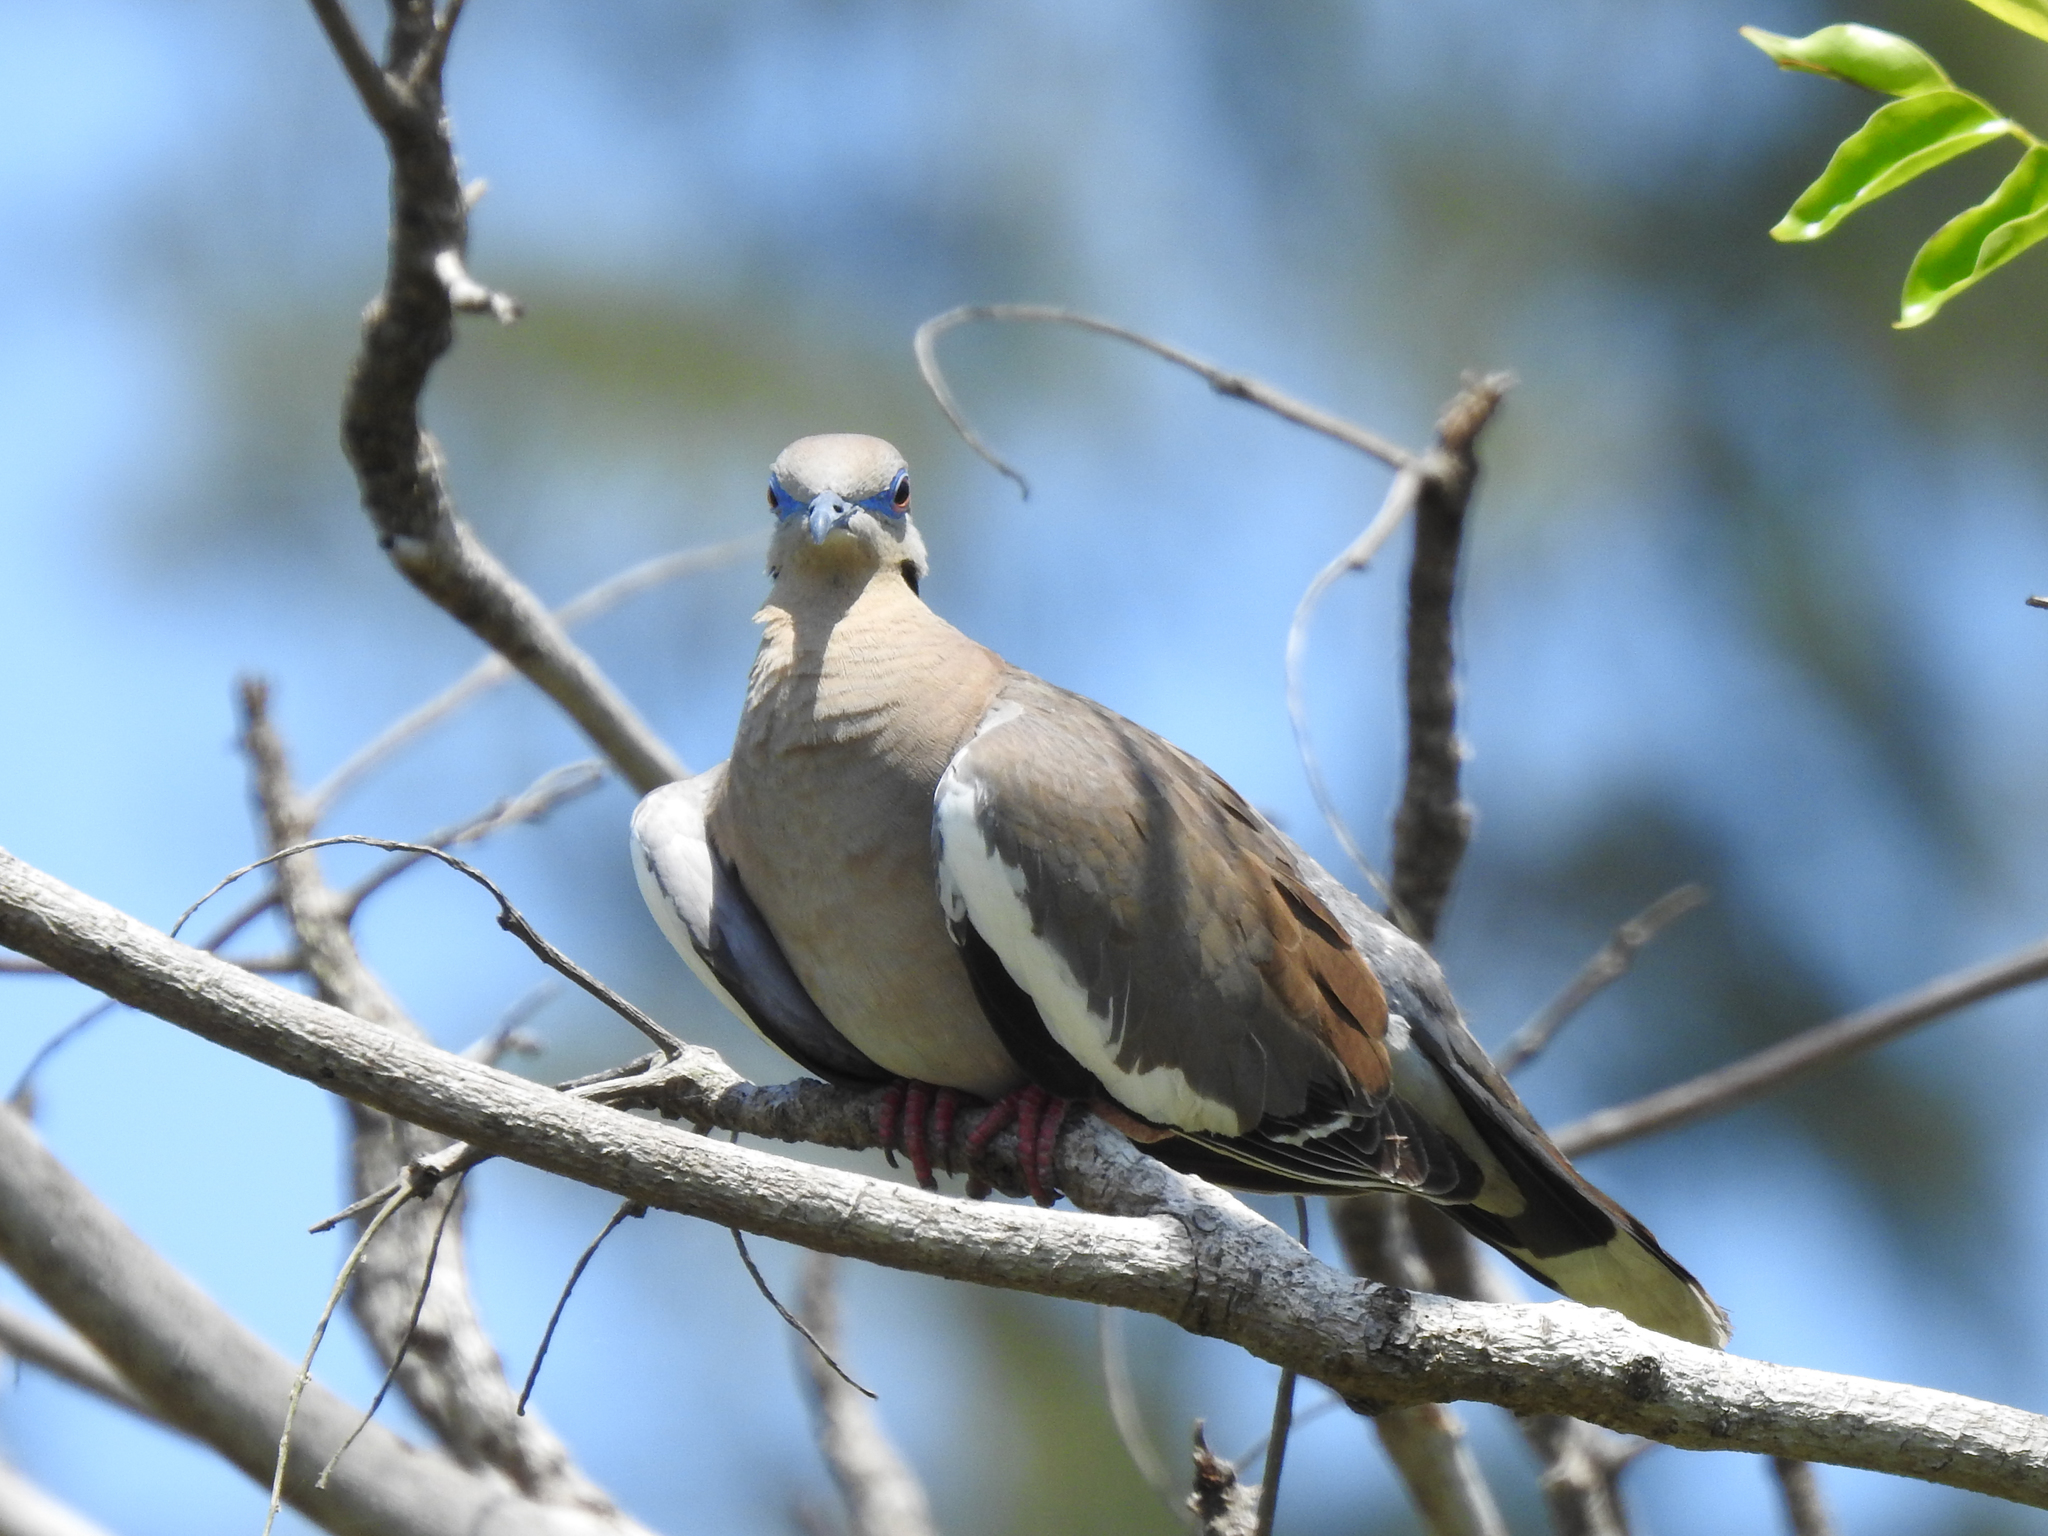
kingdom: Animalia
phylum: Chordata
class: Aves
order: Columbiformes
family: Columbidae
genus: Zenaida
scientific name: Zenaida asiatica
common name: White-winged dove
